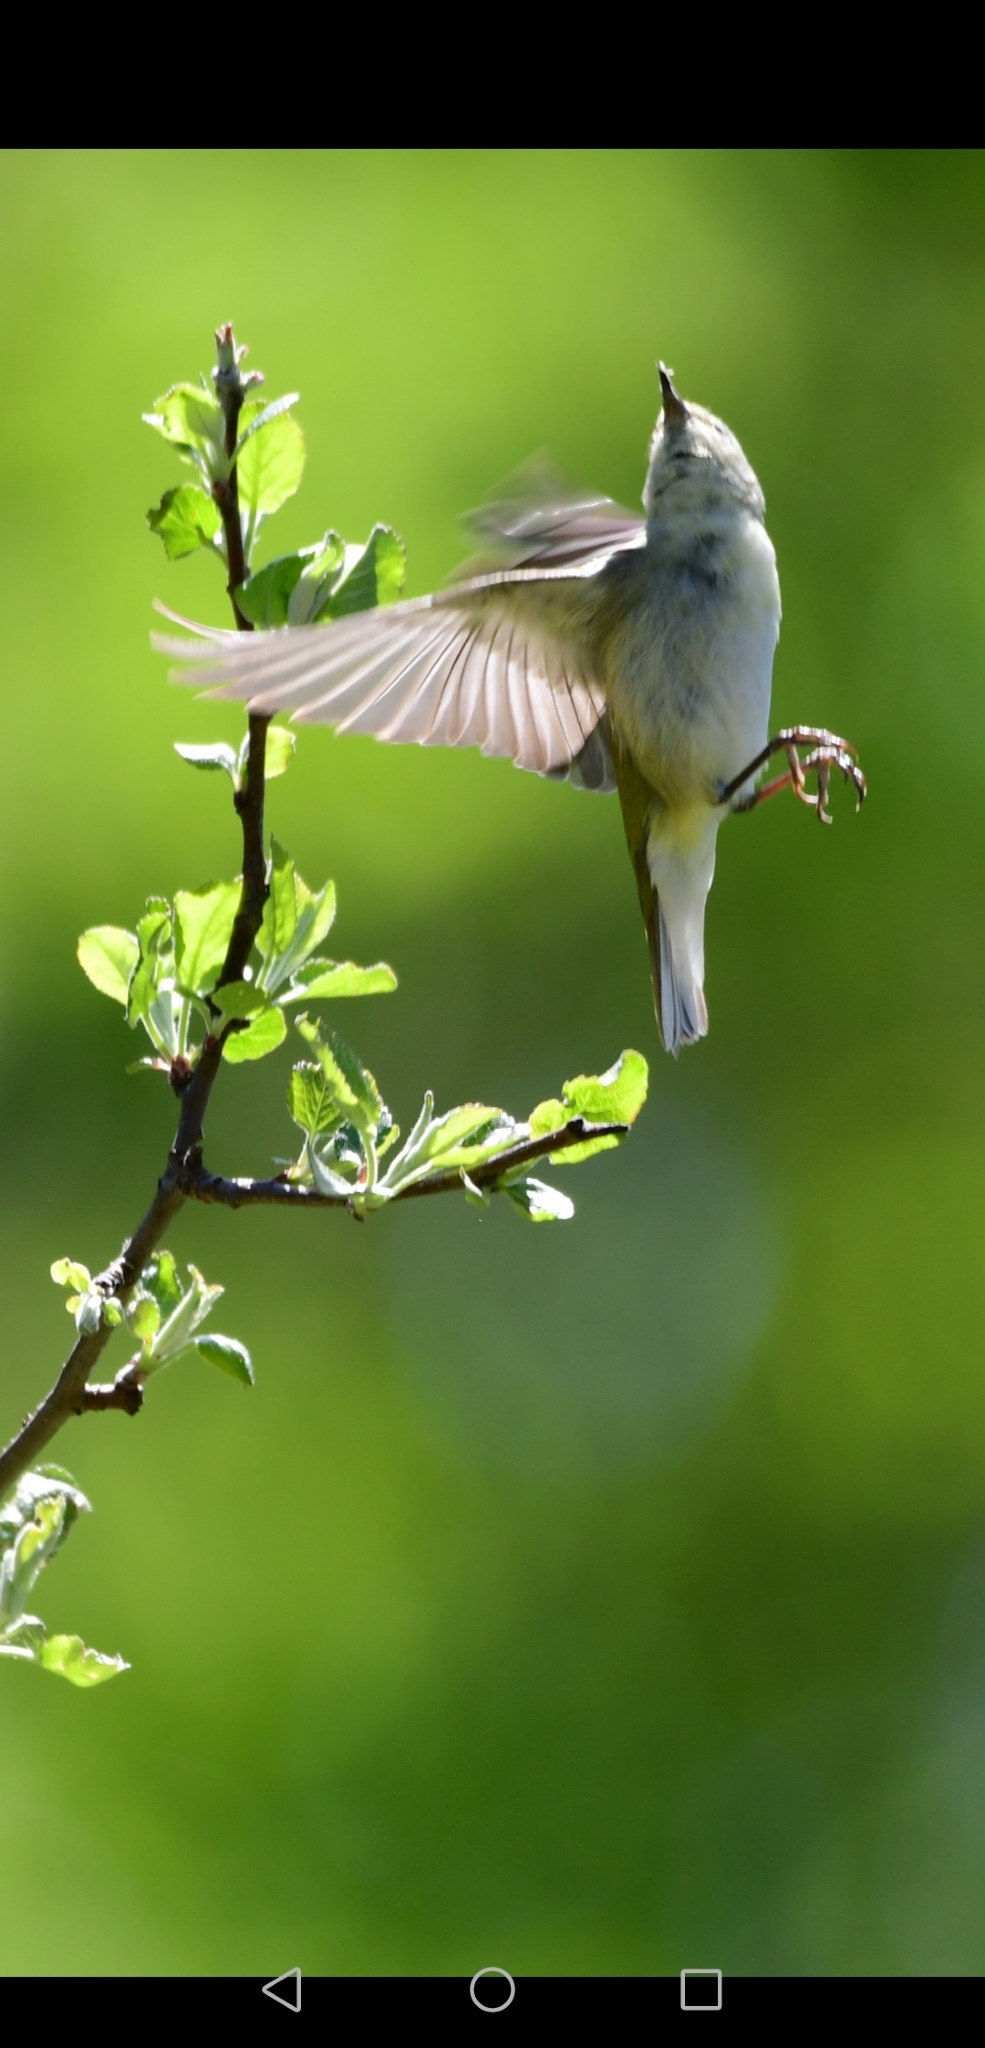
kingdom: Animalia
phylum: Chordata
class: Aves
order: Passeriformes
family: Parulidae
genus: Leiothlypis
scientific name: Leiothlypis peregrina
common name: Tennessee warbler
